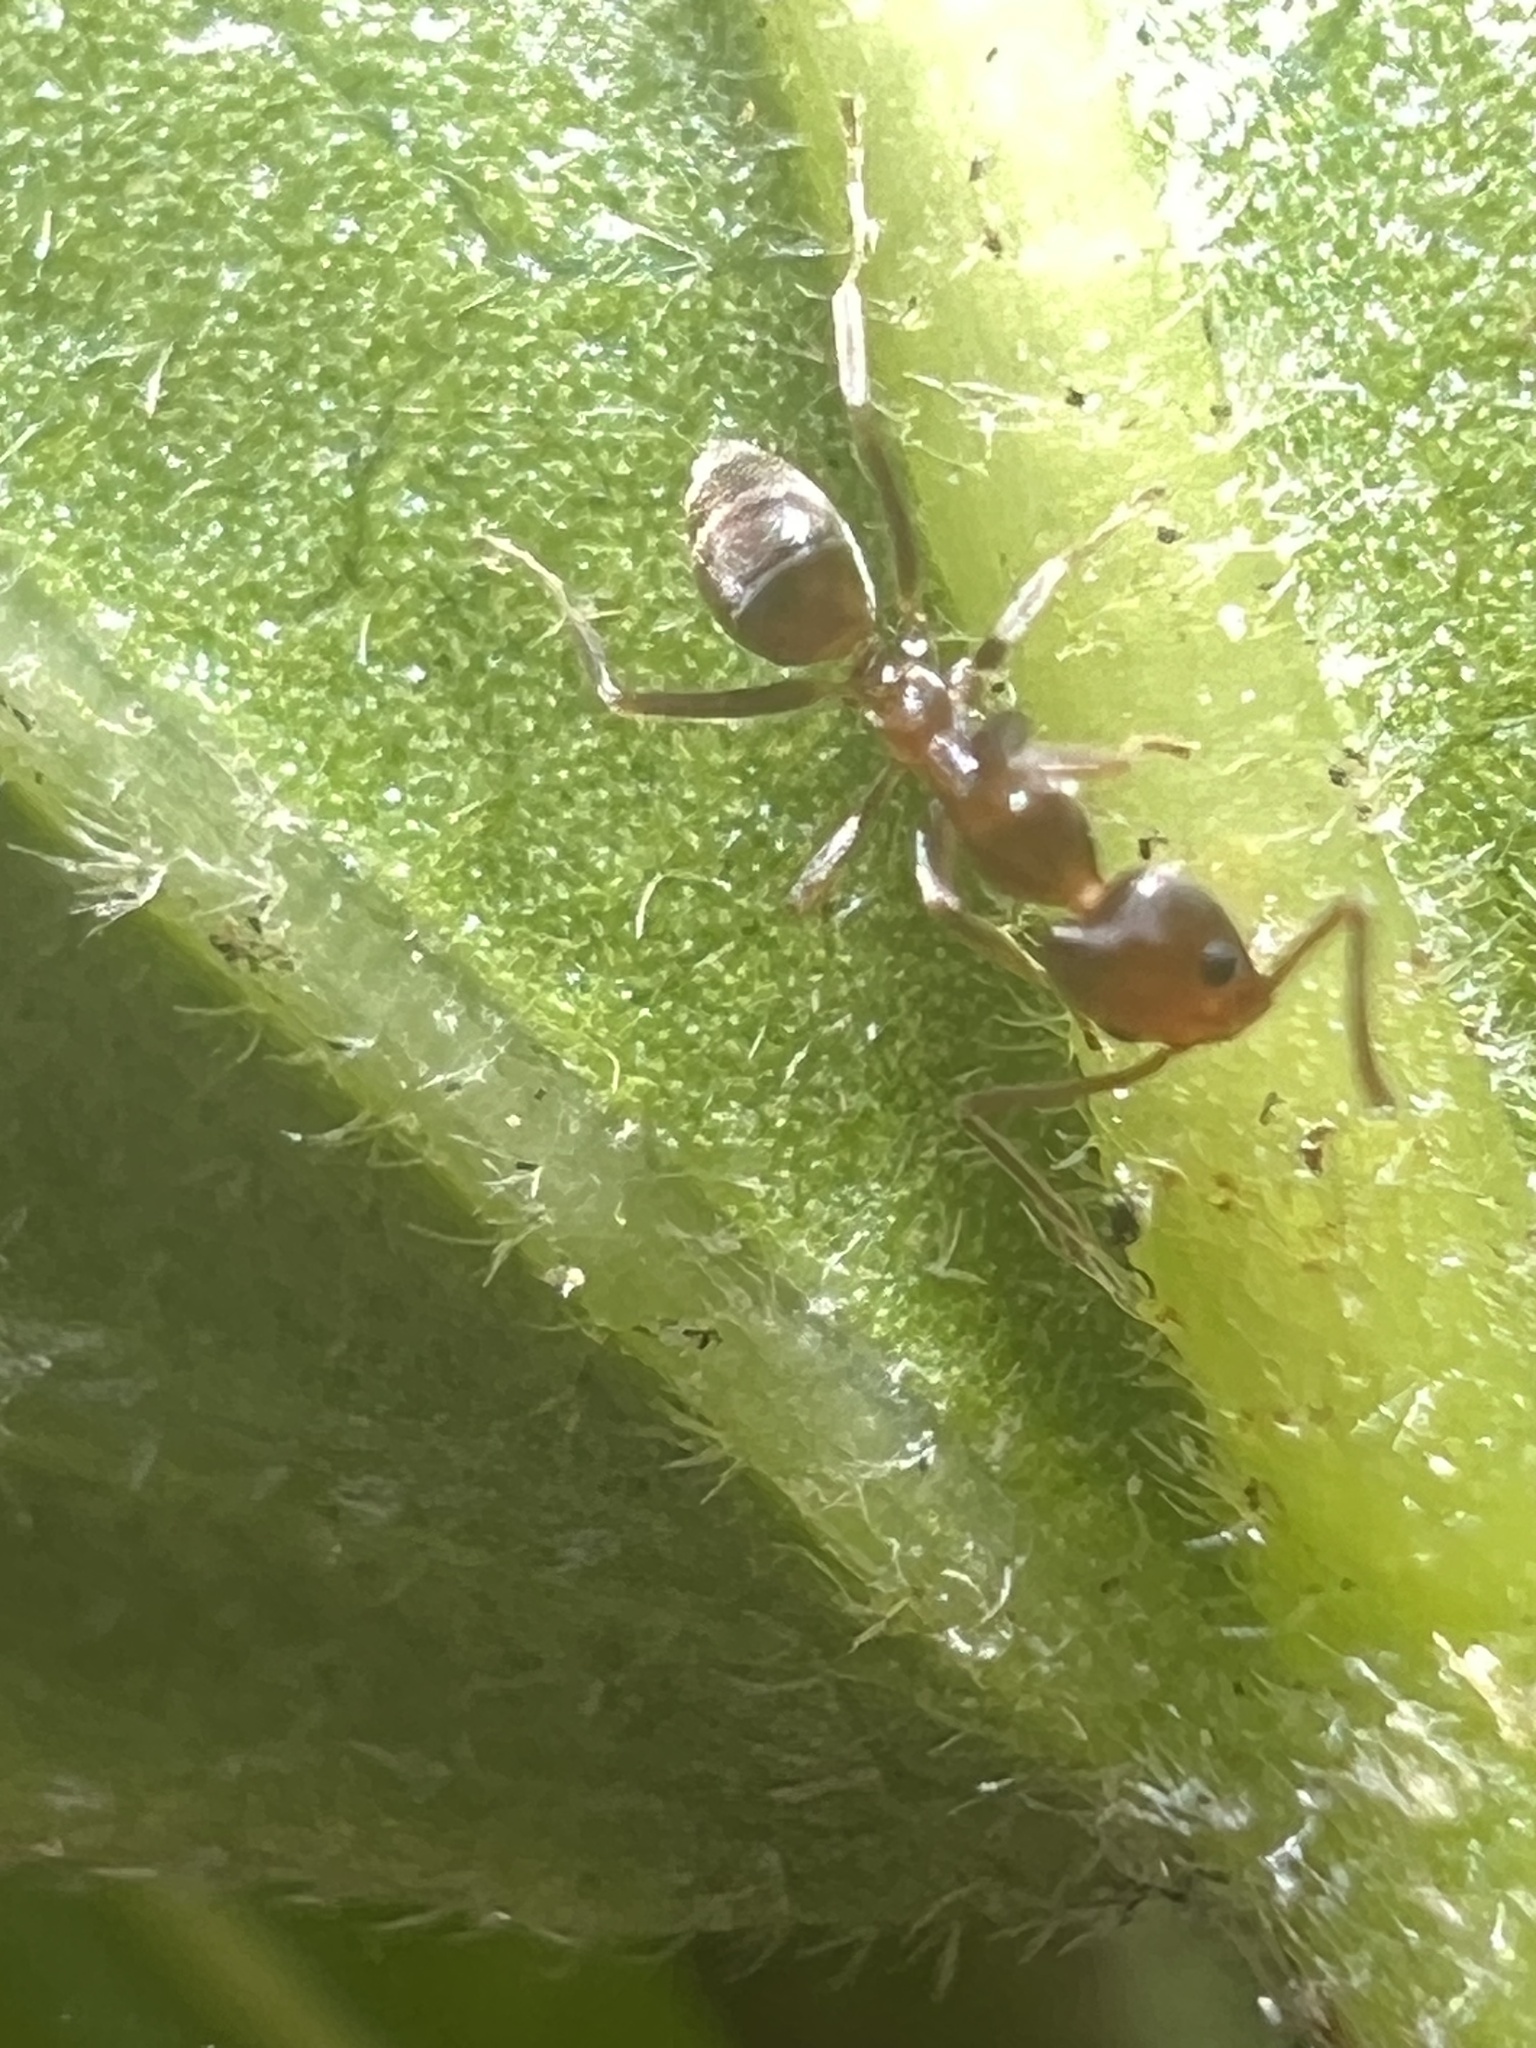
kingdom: Animalia
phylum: Arthropoda
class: Insecta
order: Hymenoptera
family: Formicidae
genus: Linepithema
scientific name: Linepithema humile
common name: Argentine ant
